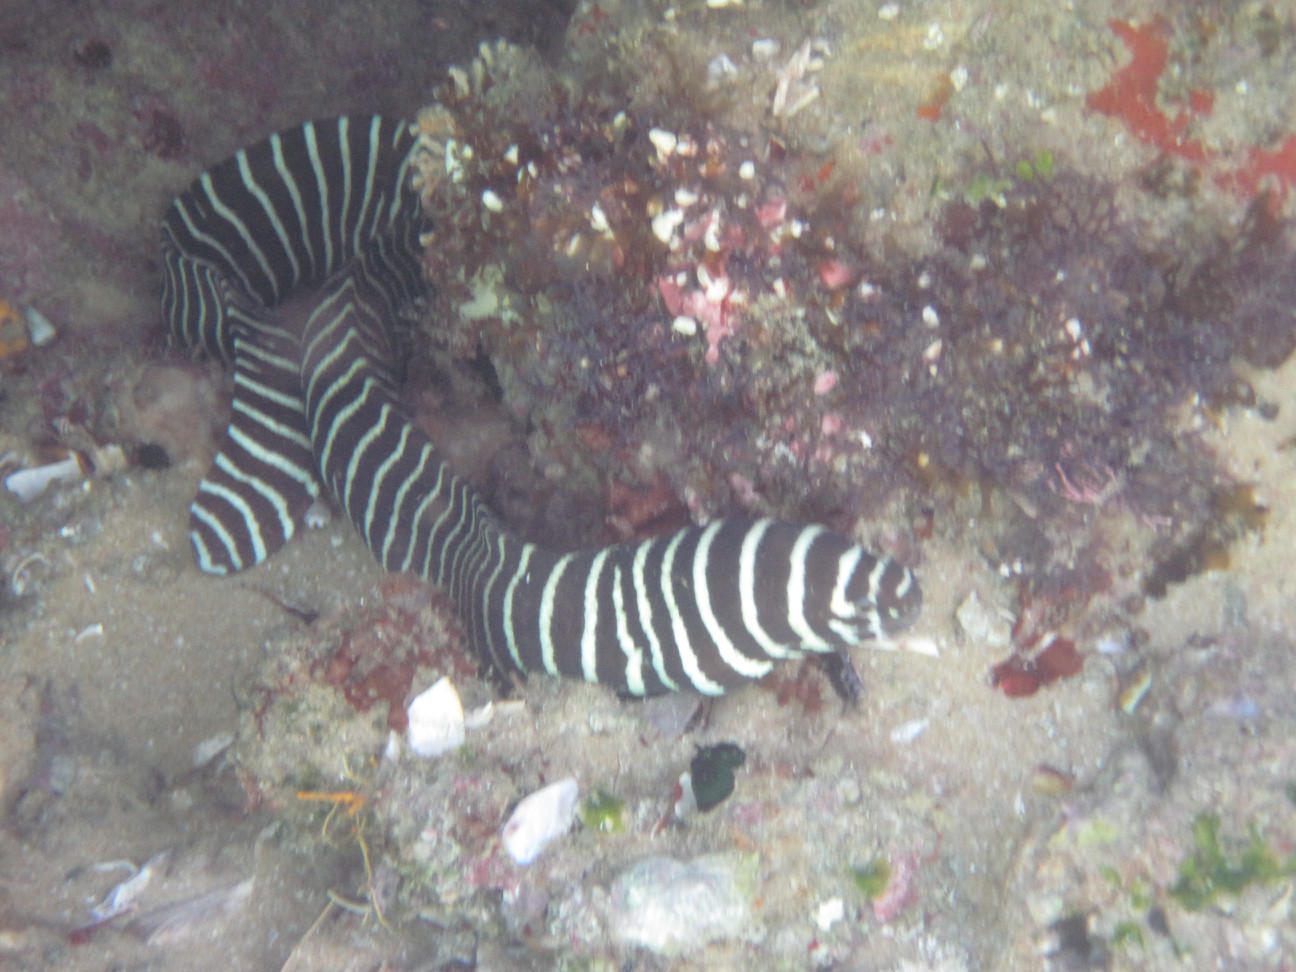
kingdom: Animalia
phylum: Chordata
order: Anguilliformes
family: Muraenidae
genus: Gymnomuraena
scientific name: Gymnomuraena zebra
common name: Zebra moray
